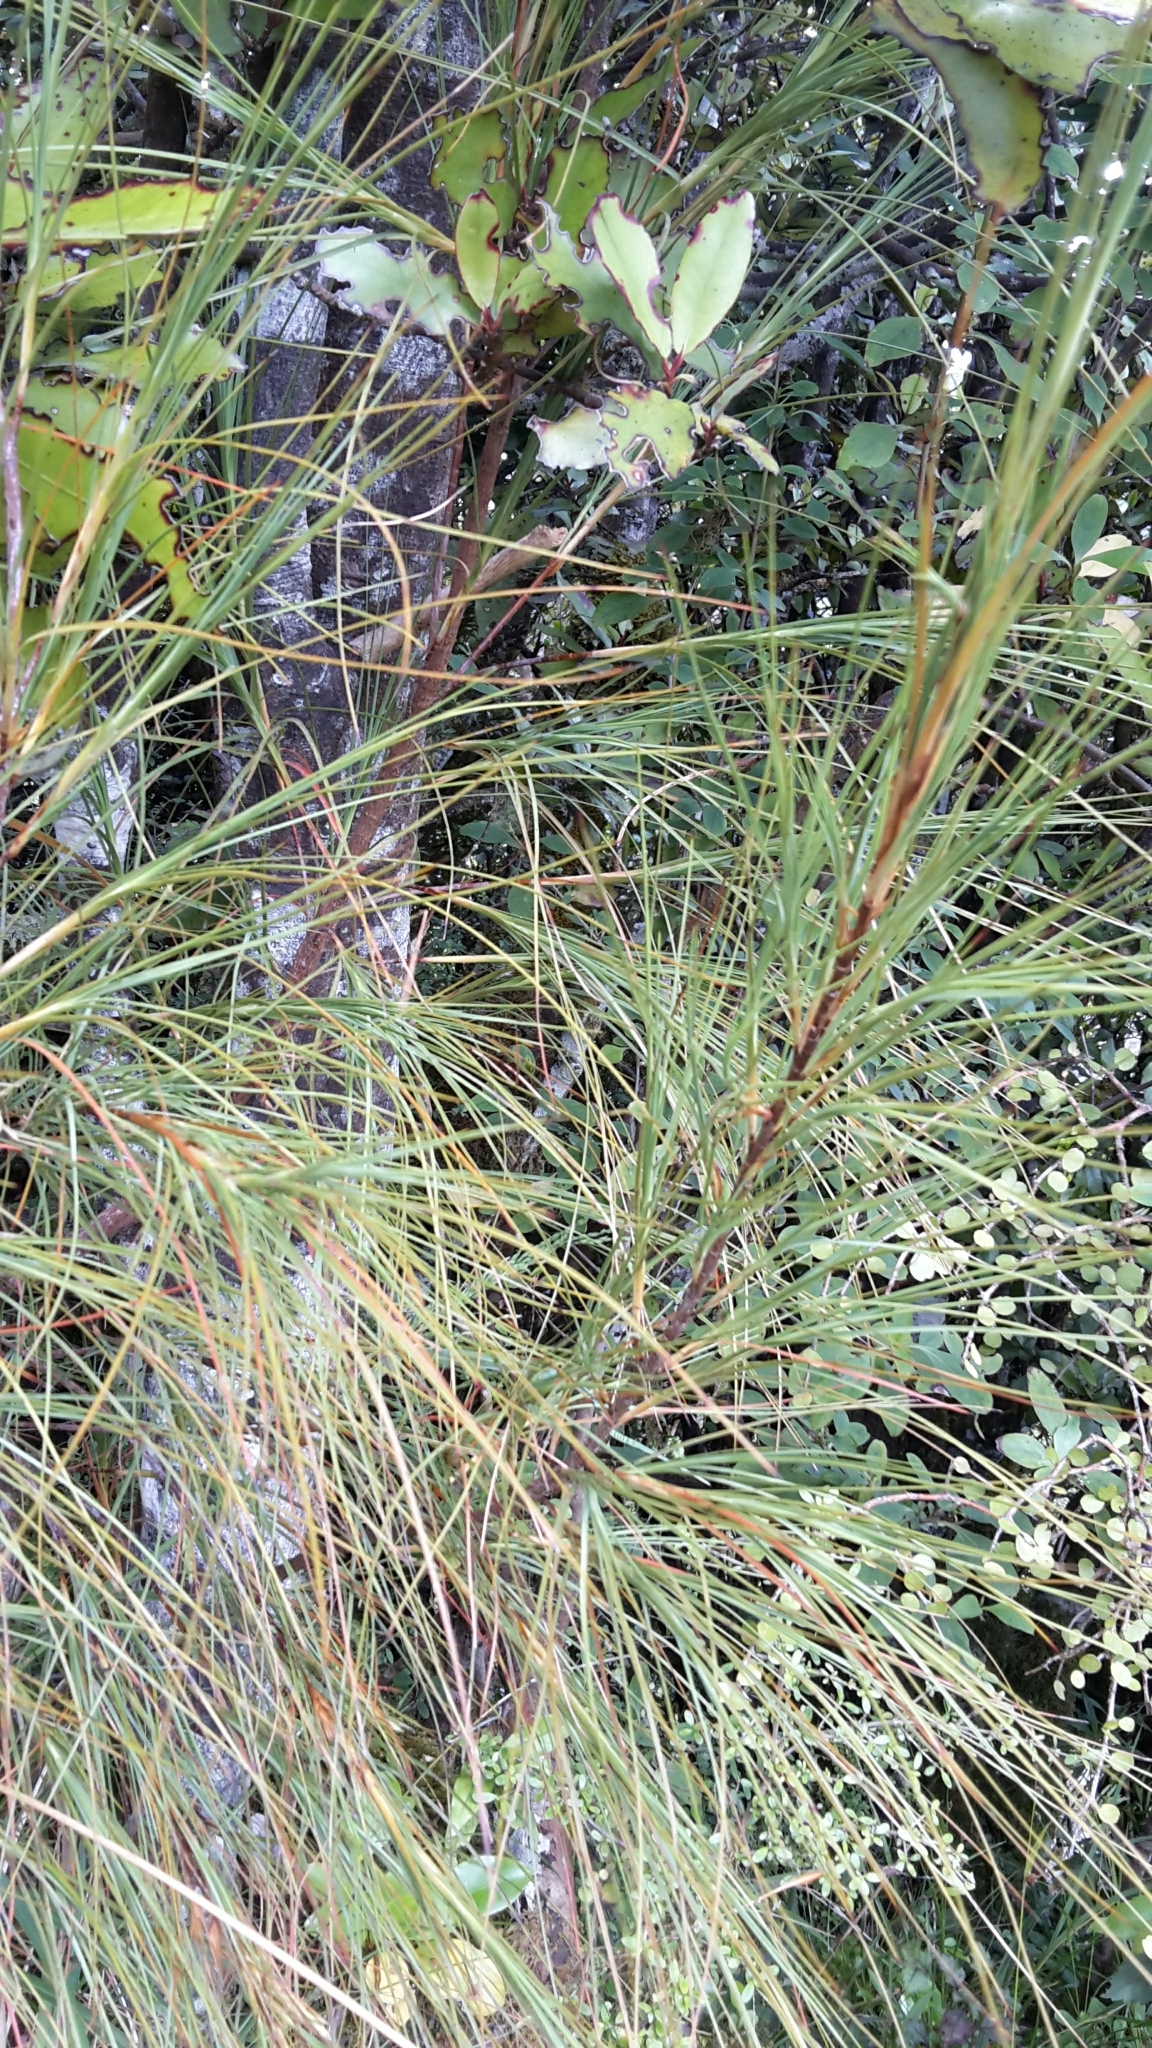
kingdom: Plantae
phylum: Tracheophyta
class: Magnoliopsida
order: Ericales
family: Ericaceae
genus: Dracophyllum
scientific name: Dracophyllum filifolium
